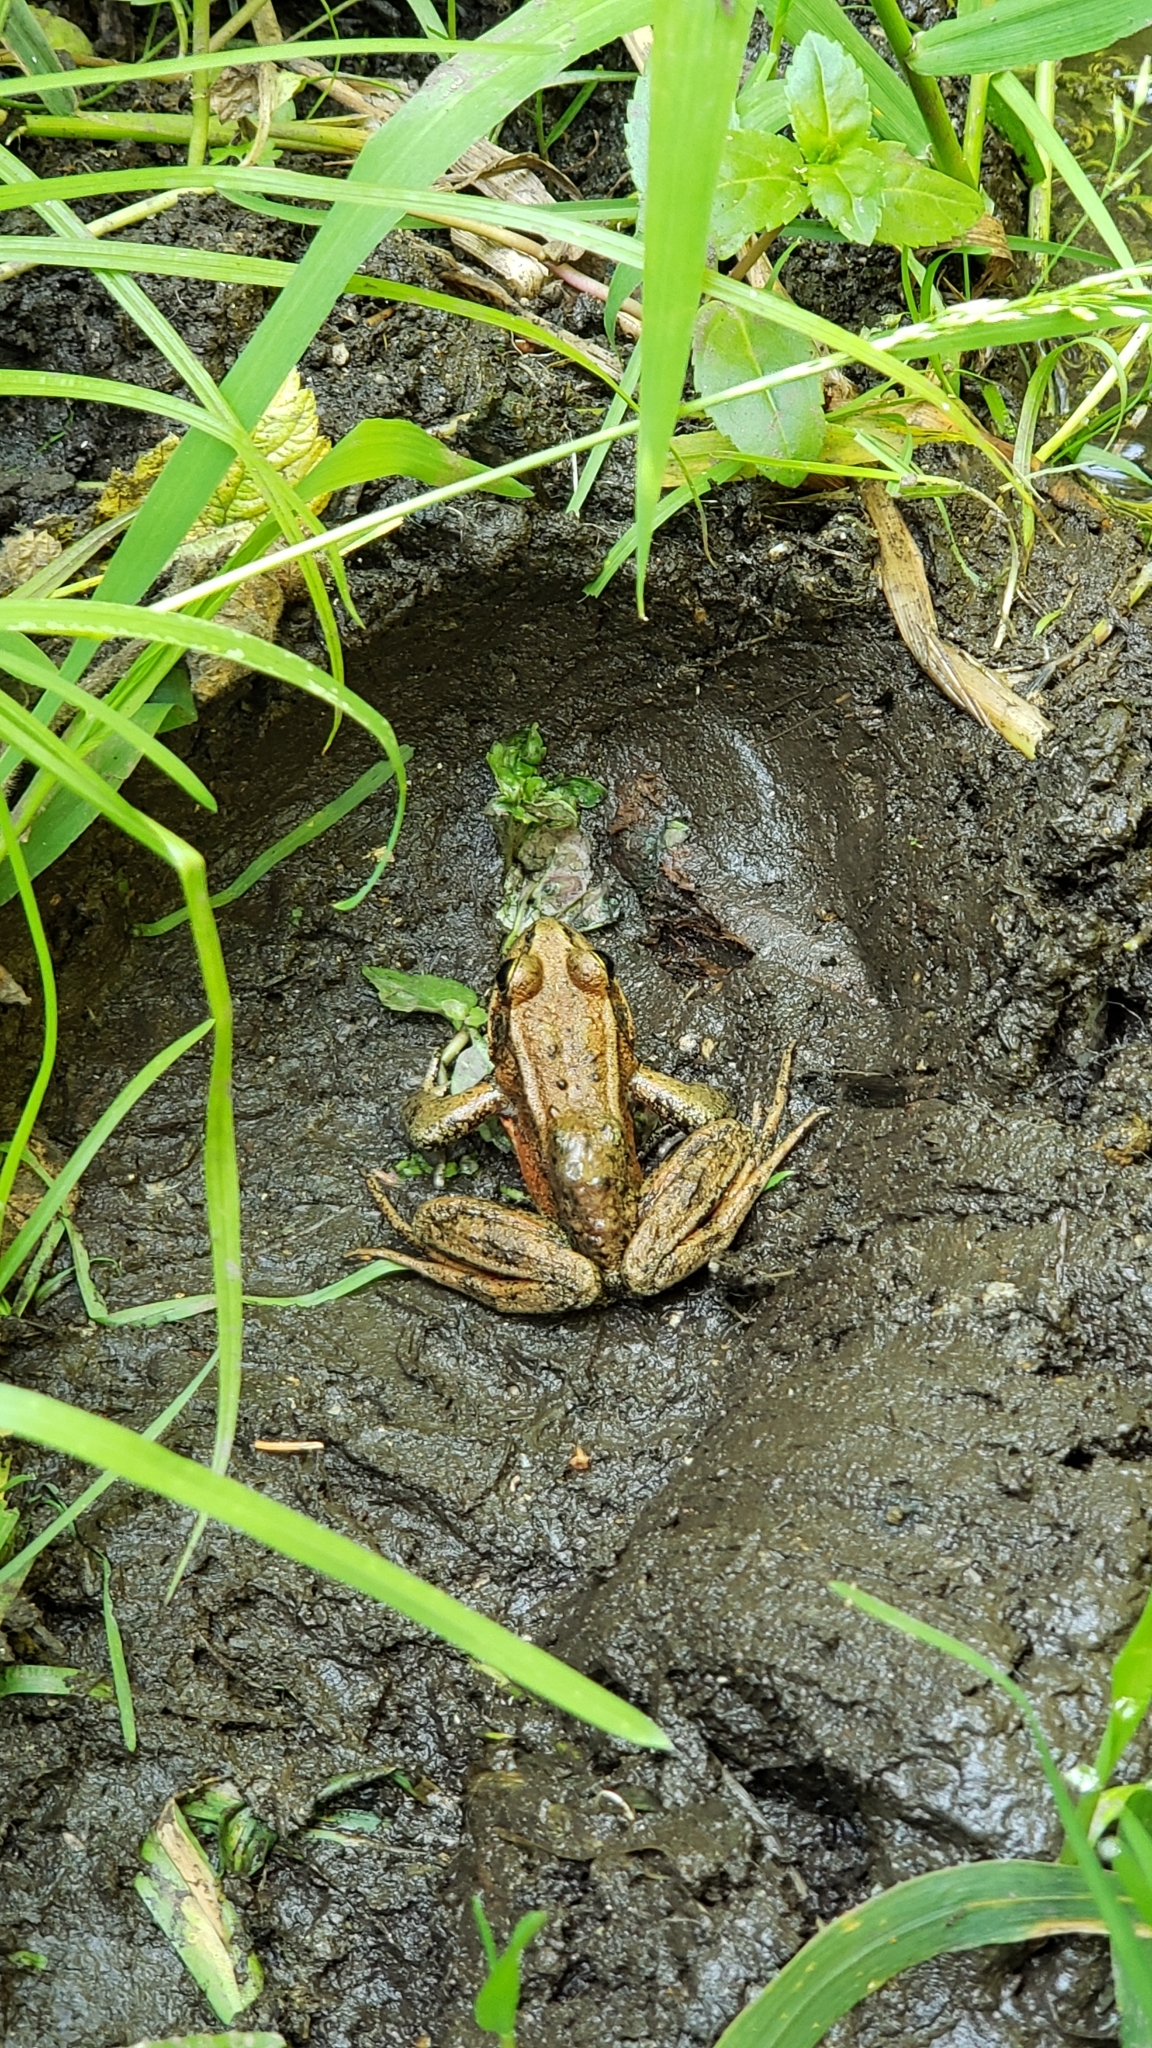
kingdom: Animalia
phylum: Chordata
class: Amphibia
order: Anura
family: Ranidae
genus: Rana
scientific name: Rana aurora
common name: Red-legged frog
